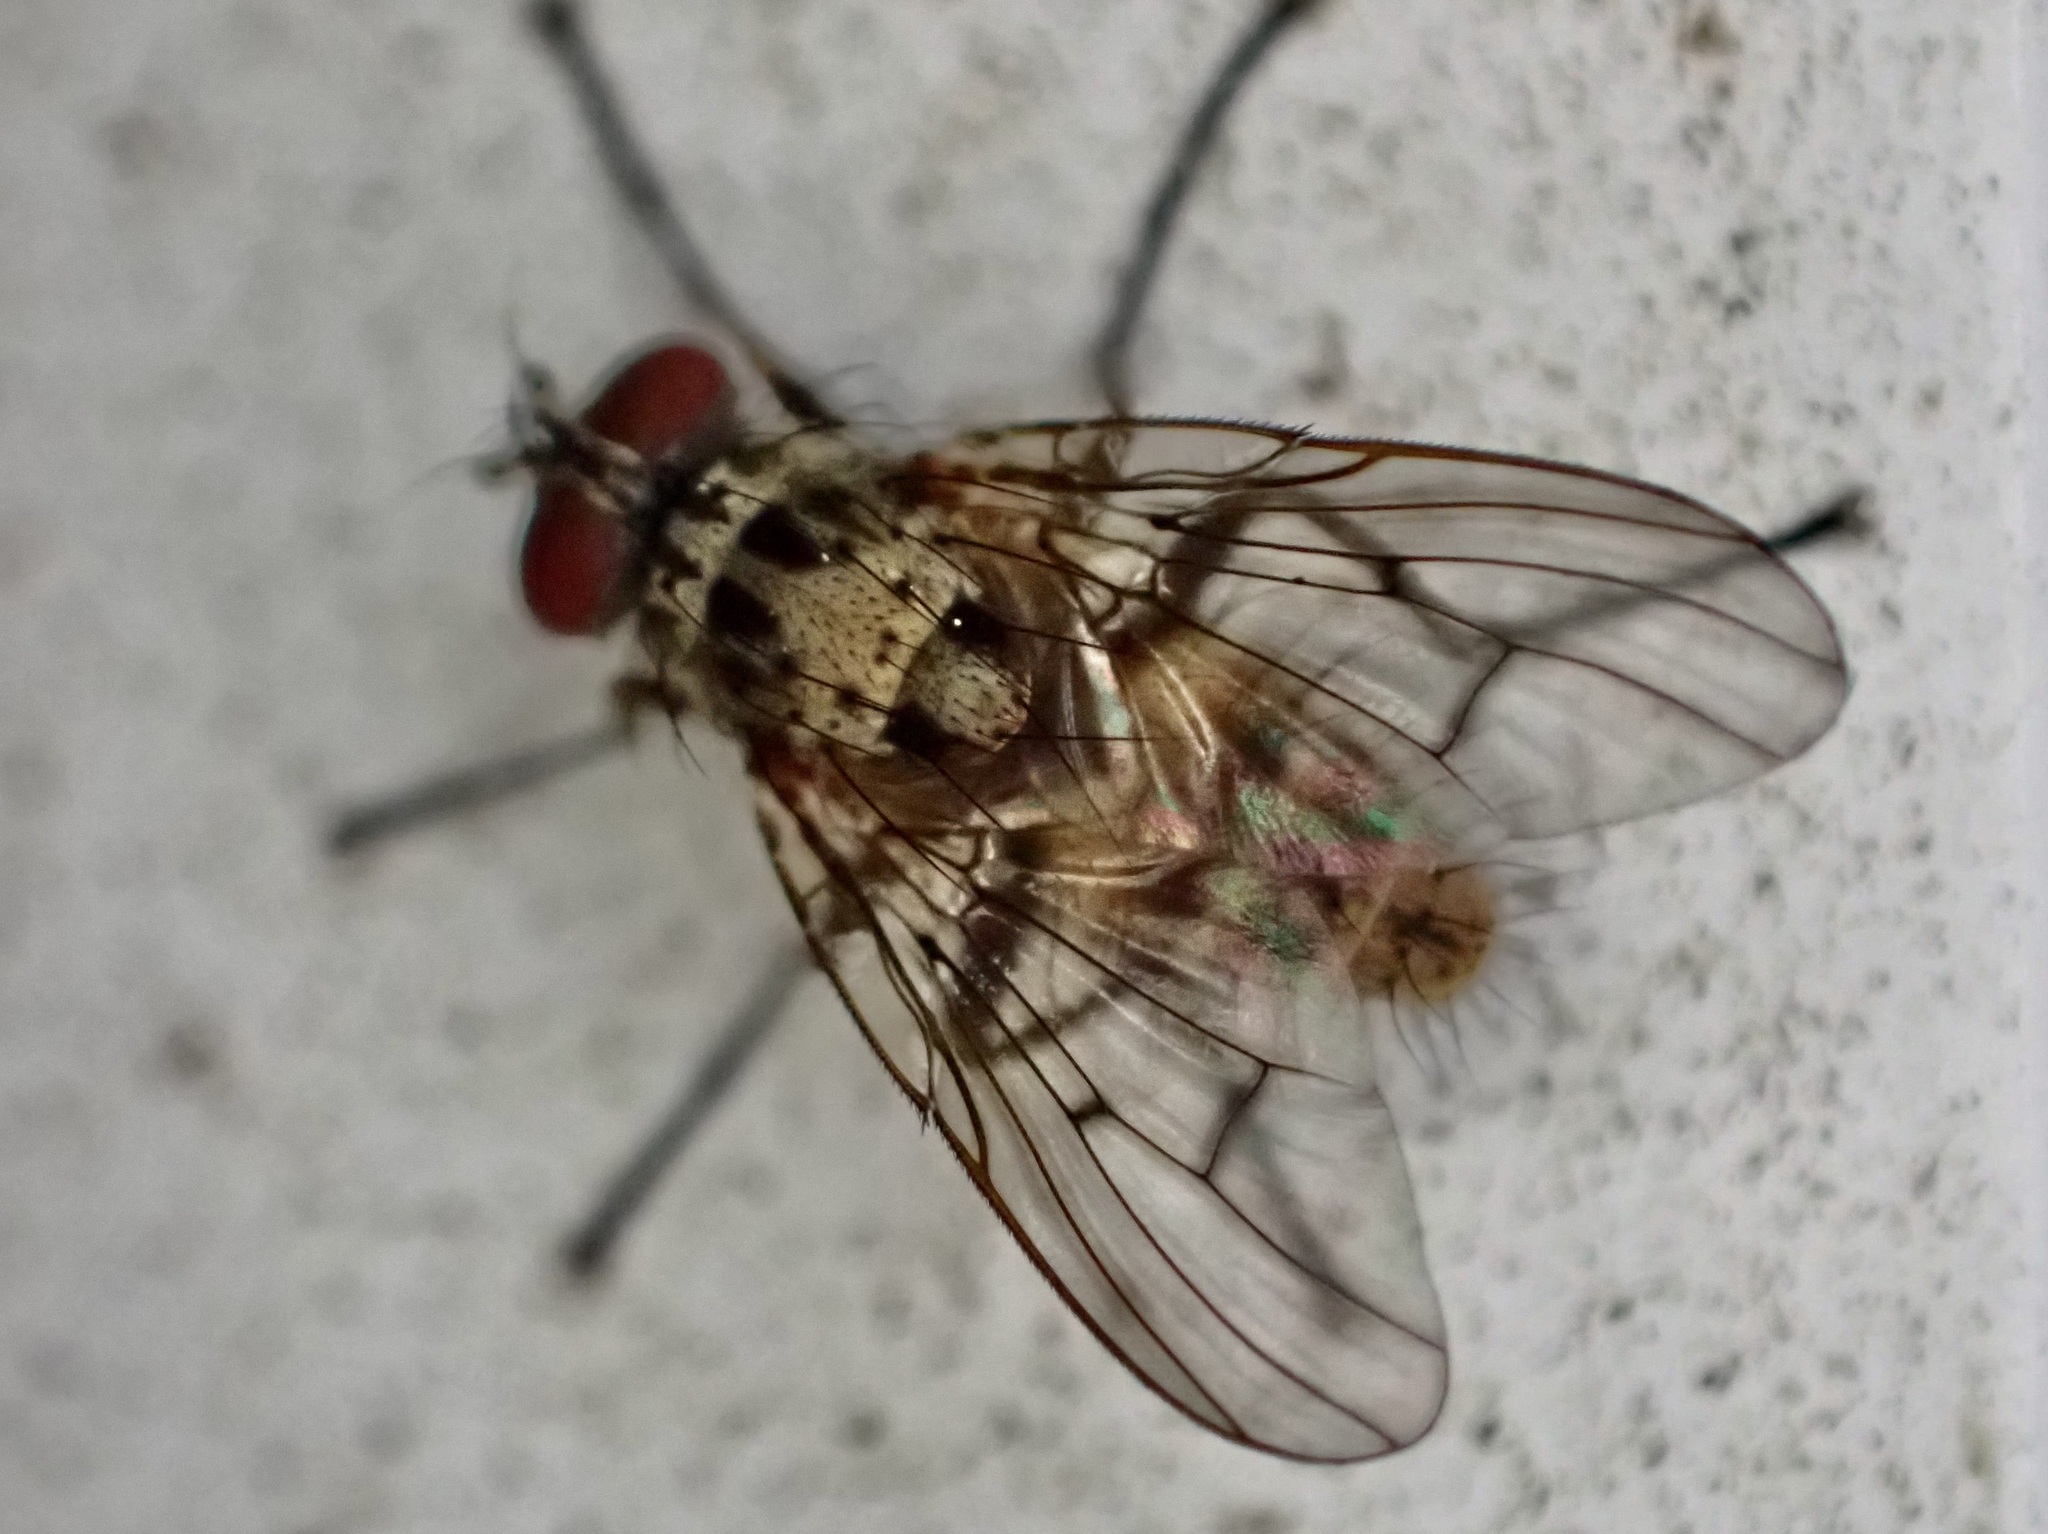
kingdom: Animalia
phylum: Arthropoda
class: Insecta
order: Diptera
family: Muscidae
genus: Helina
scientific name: Helina sexmaculata
